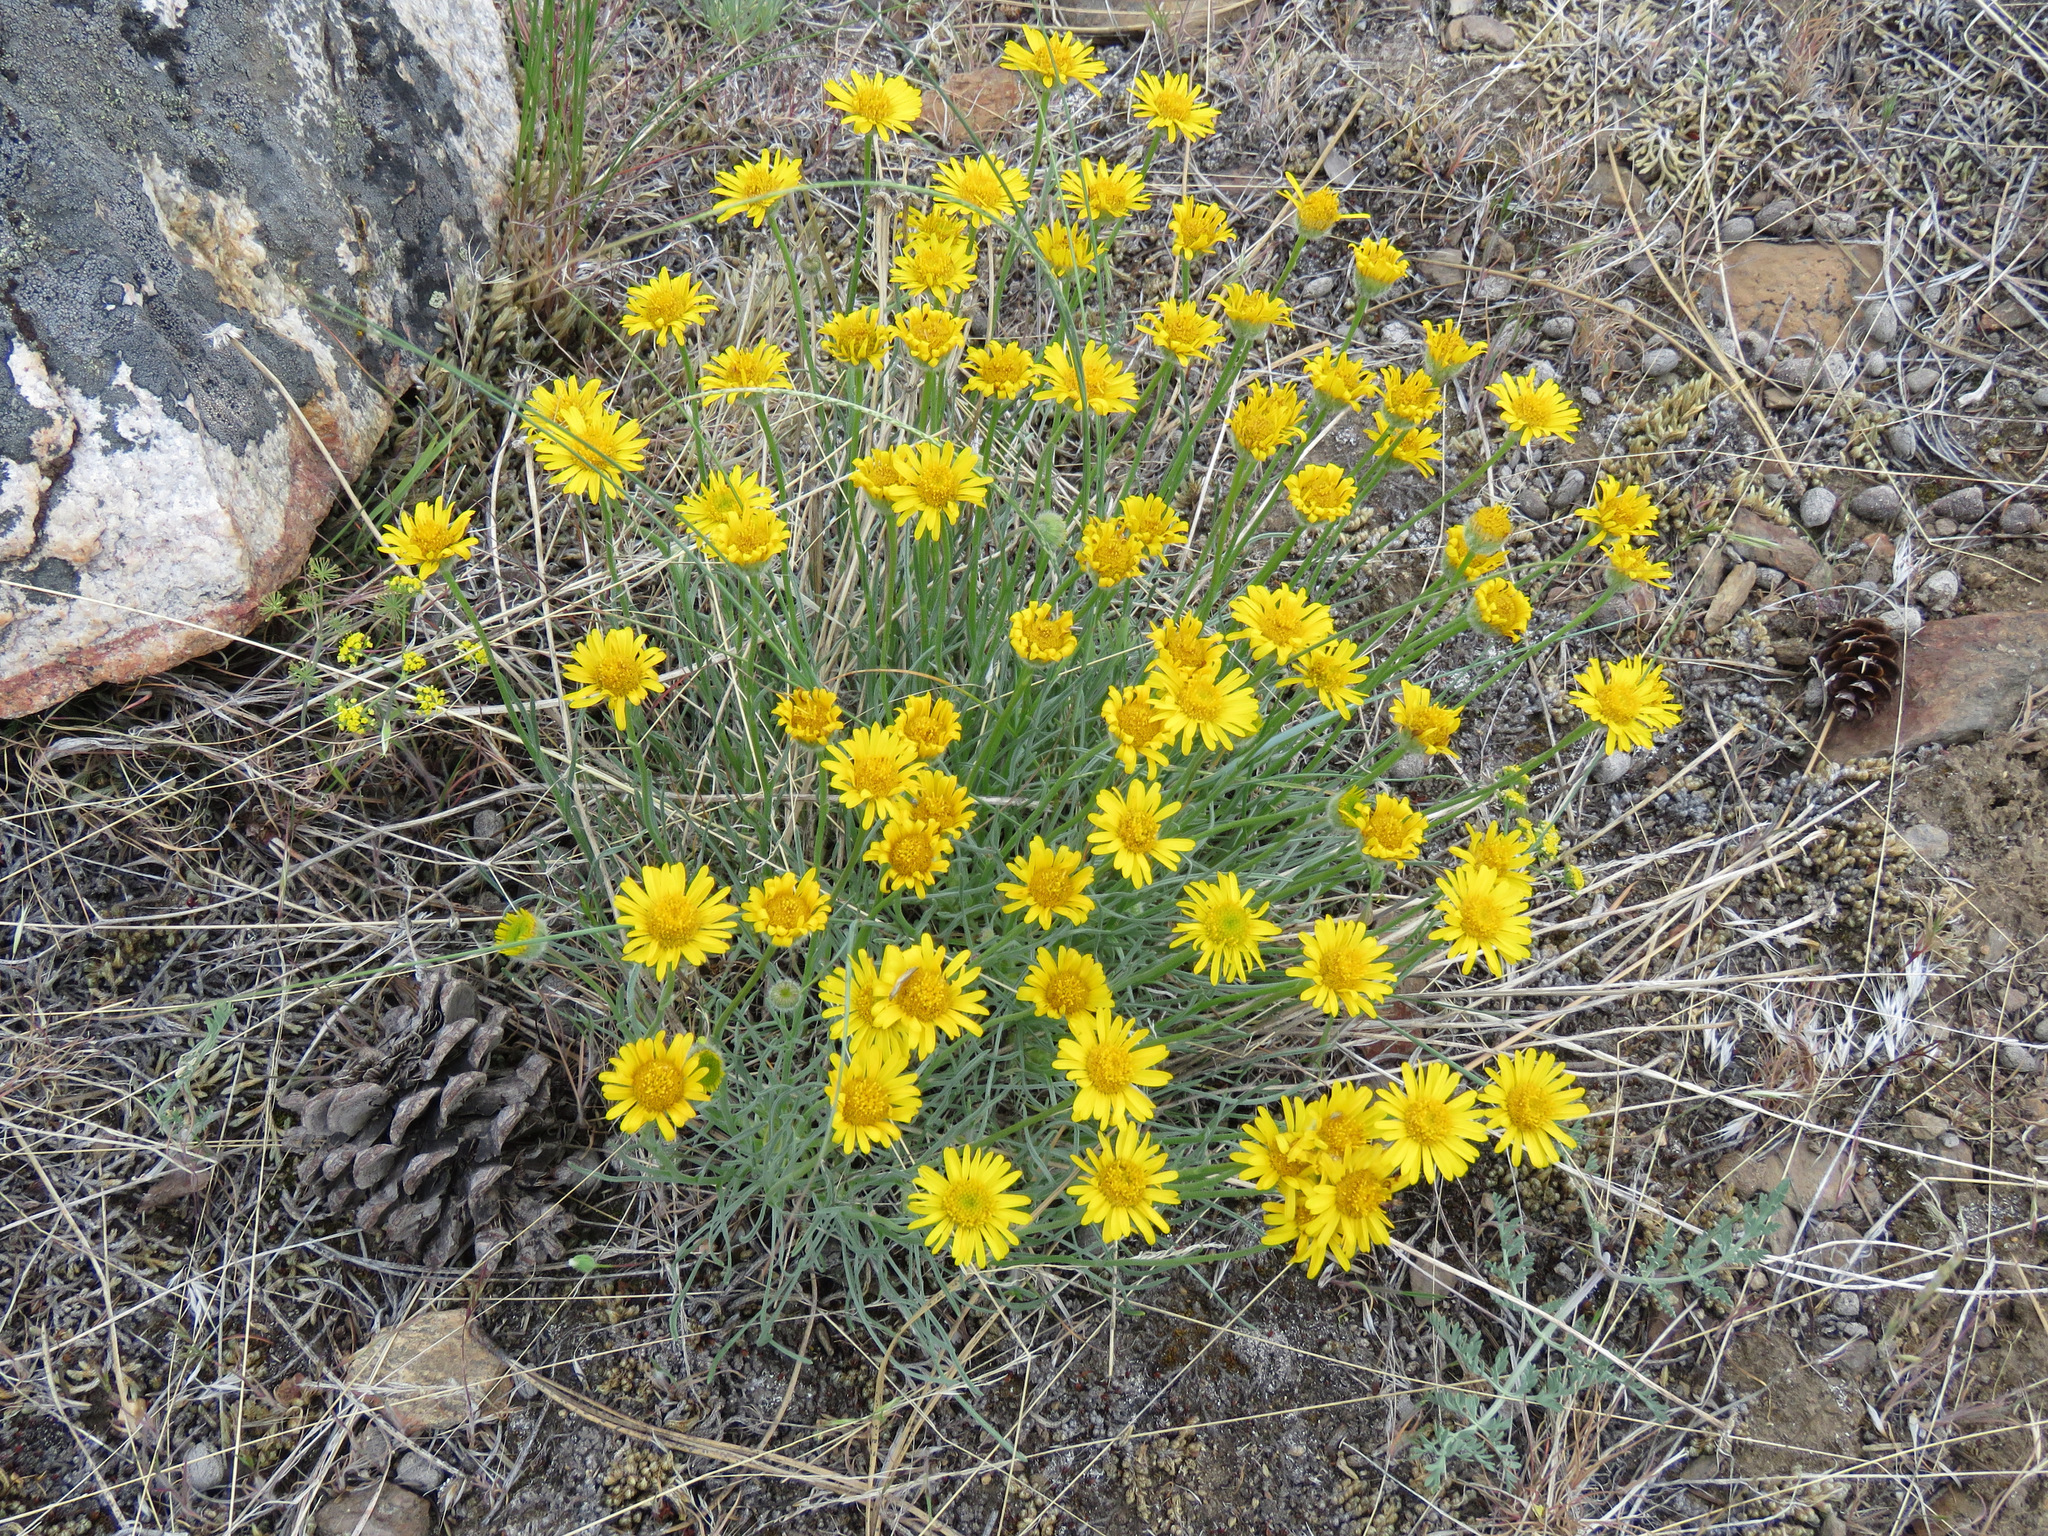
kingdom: Plantae
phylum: Tracheophyta
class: Magnoliopsida
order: Asterales
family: Asteraceae
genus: Erigeron
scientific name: Erigeron linearis
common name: Desert yellow fleabane
